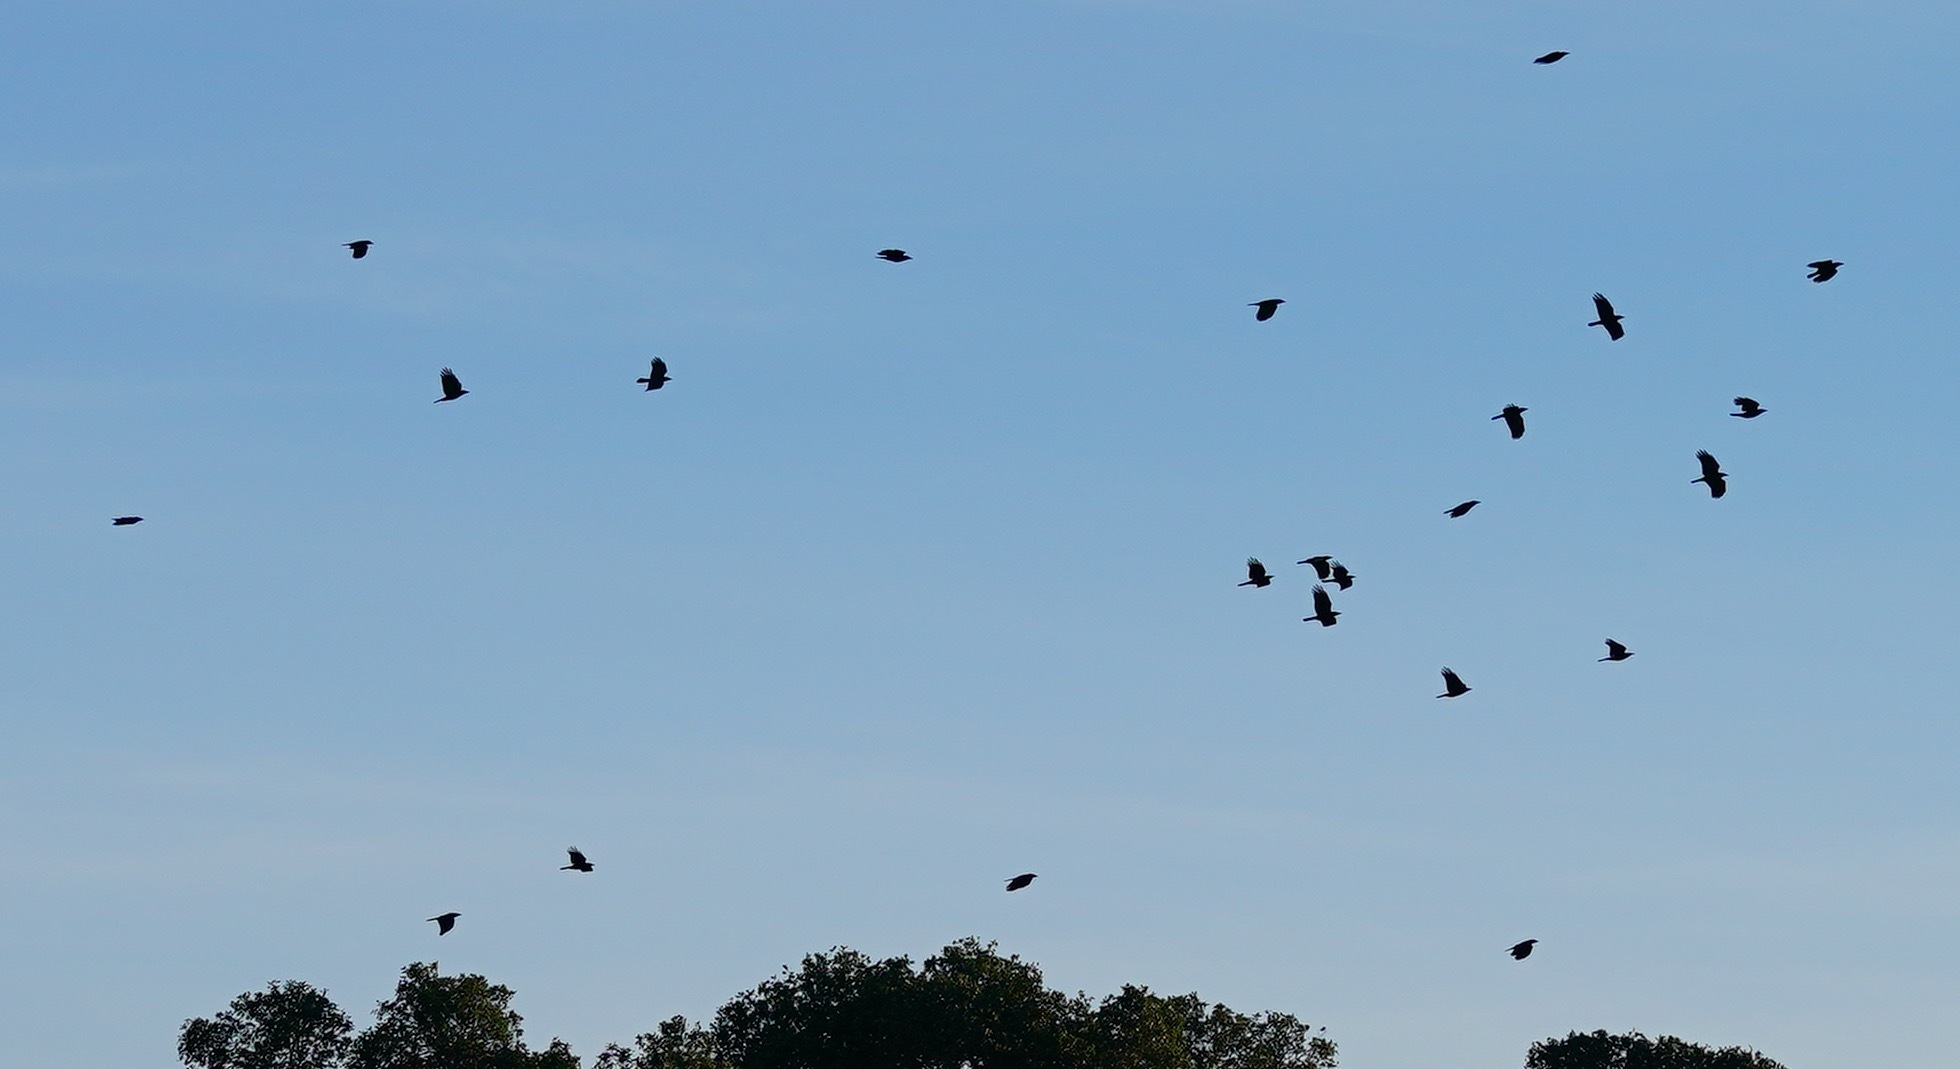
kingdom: Animalia
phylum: Chordata
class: Aves
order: Passeriformes
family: Corvidae
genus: Corvus
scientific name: Corvus brachyrhynchos
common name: American crow
